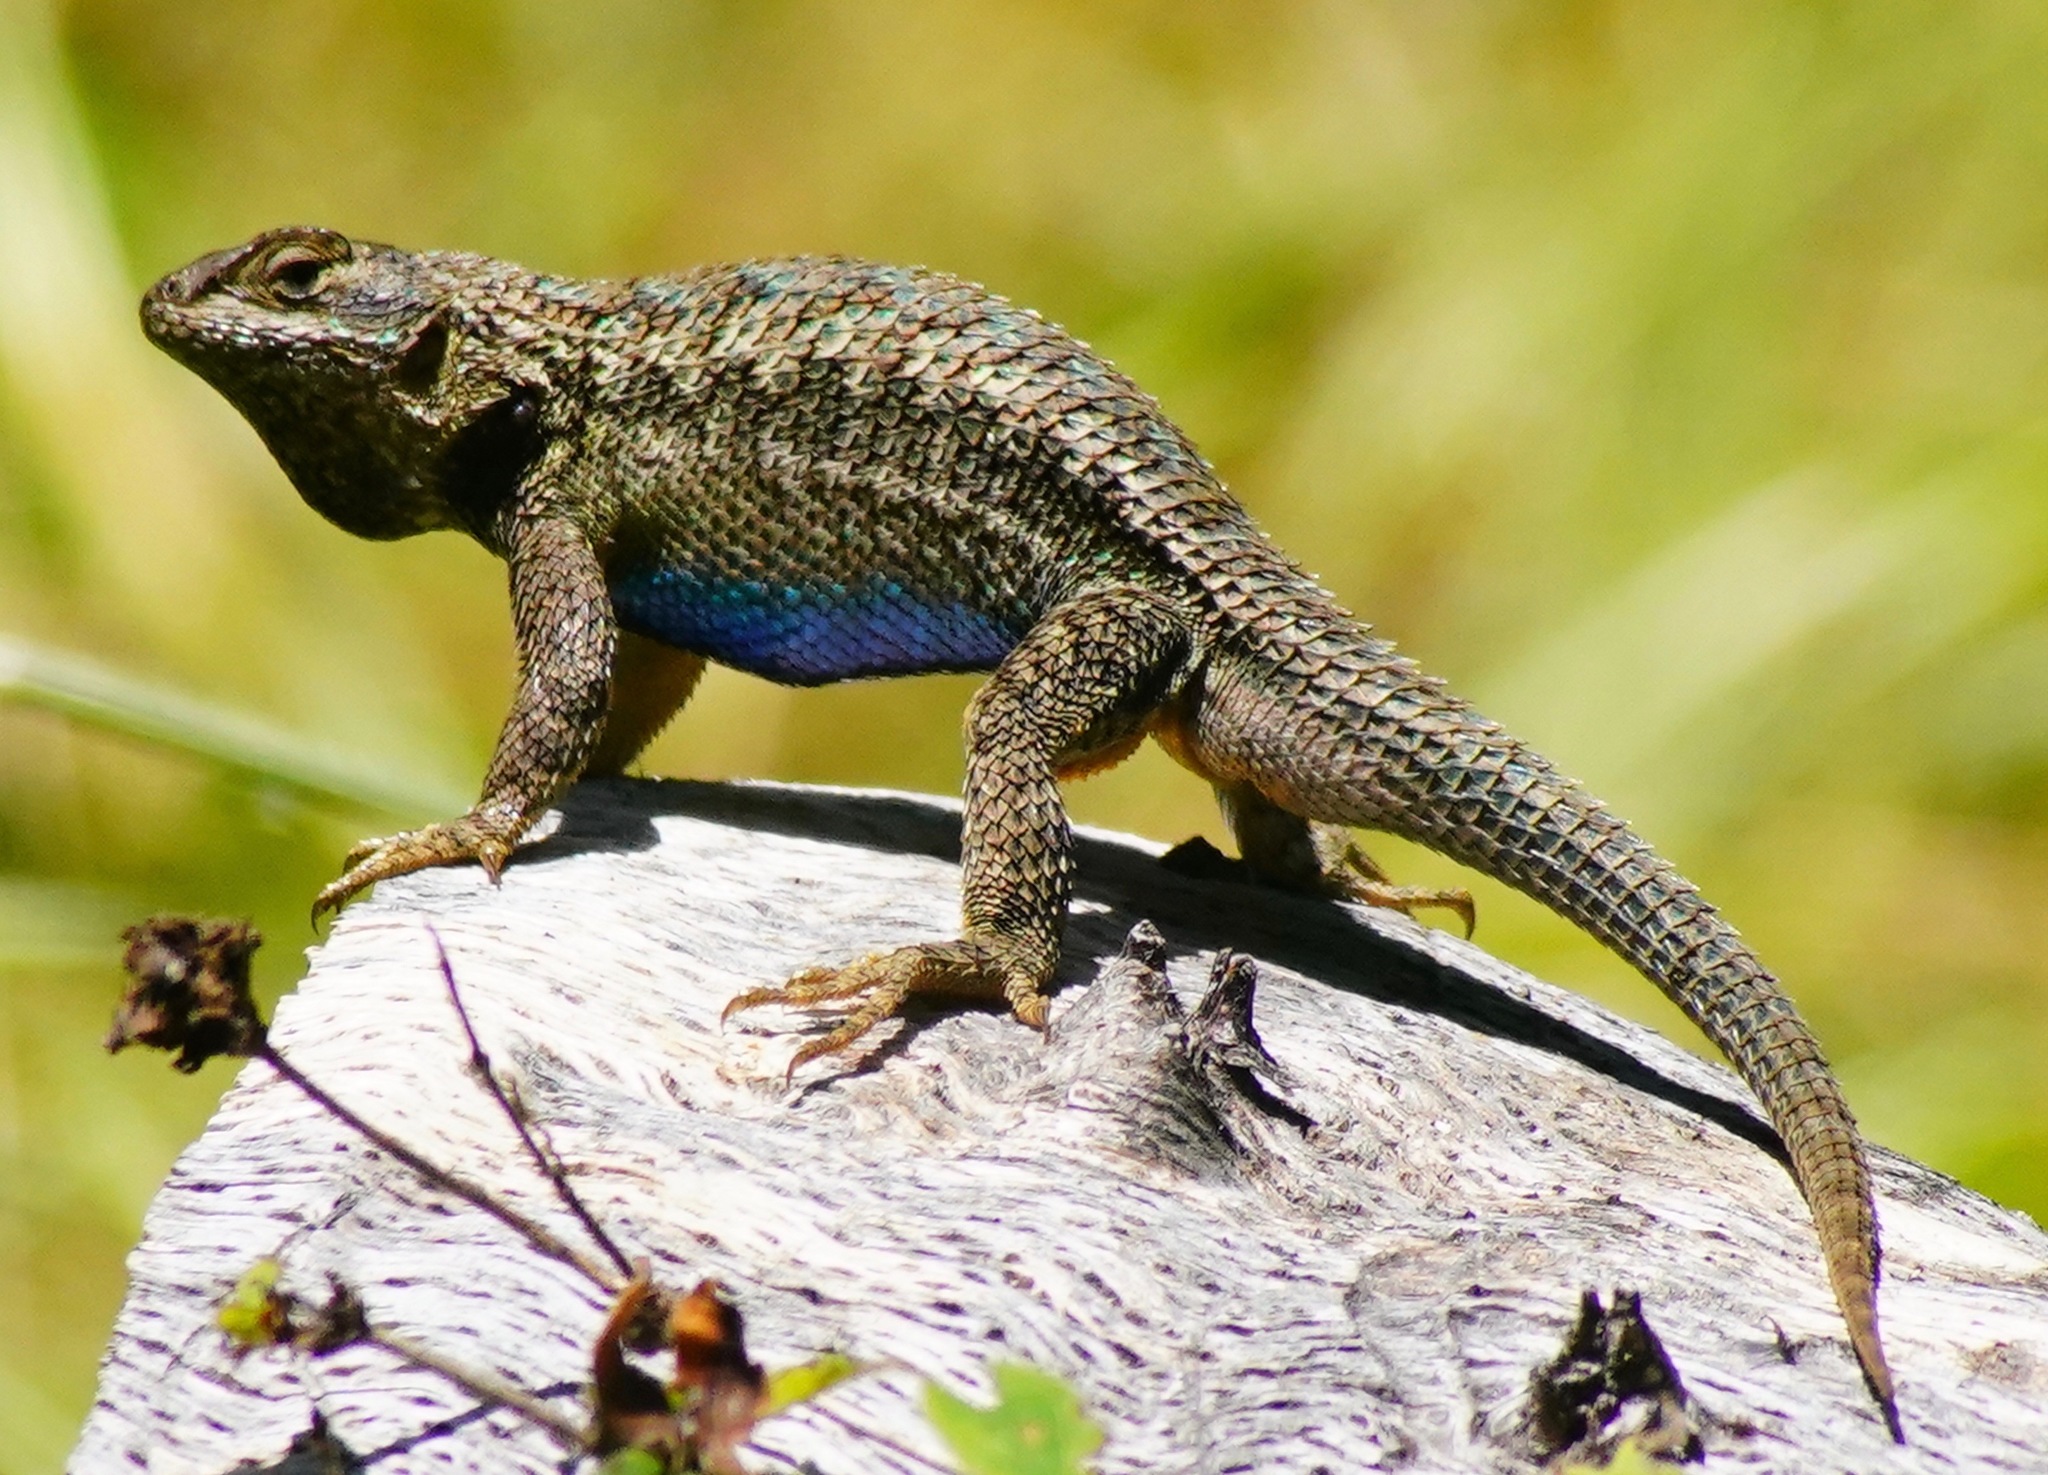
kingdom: Animalia
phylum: Chordata
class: Squamata
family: Phrynosomatidae
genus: Sceloporus
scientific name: Sceloporus occidentalis
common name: Western fence lizard
